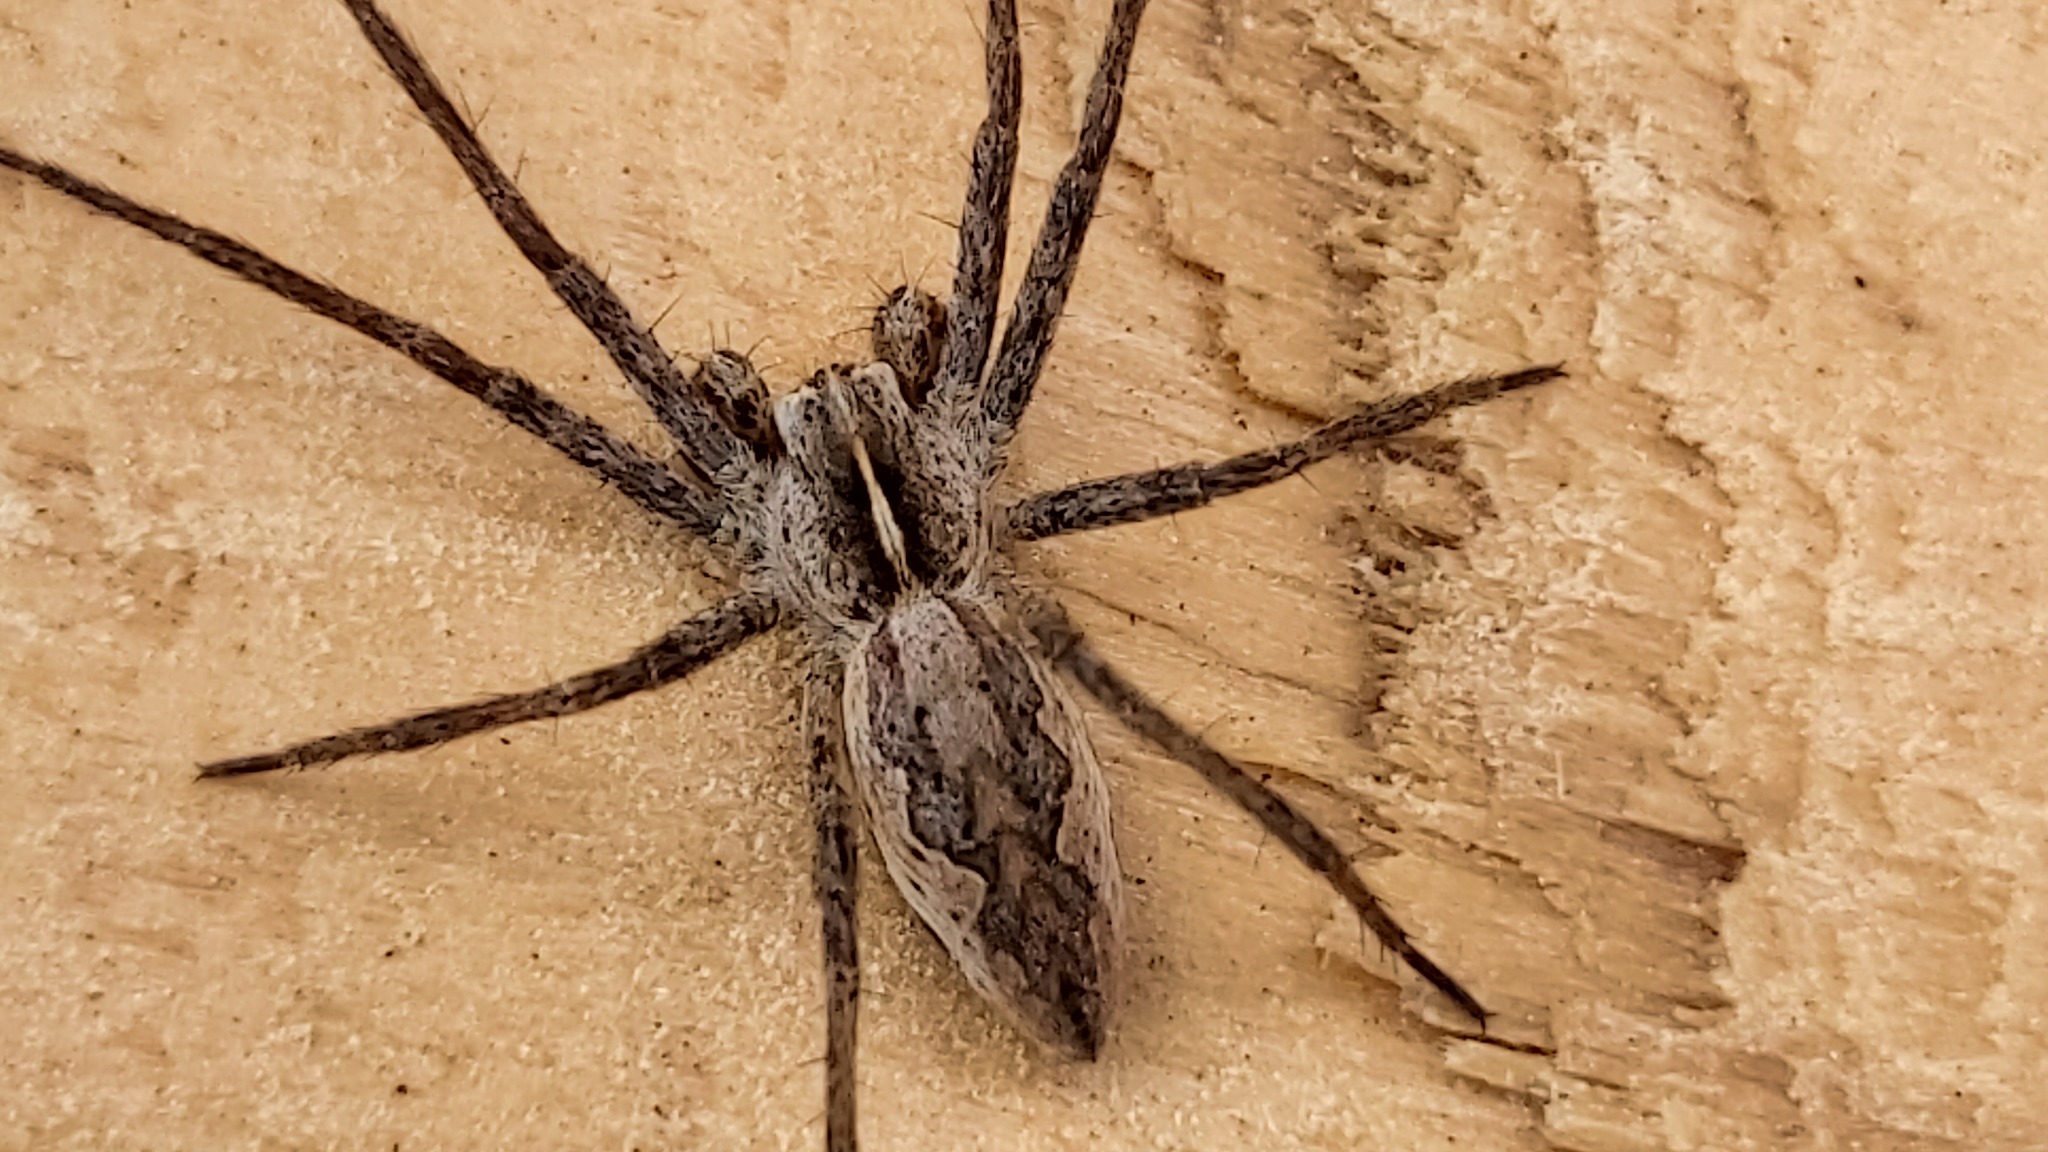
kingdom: Animalia
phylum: Arthropoda
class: Arachnida
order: Araneae
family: Pisauridae
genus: Pisaura
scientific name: Pisaura mirabilis
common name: Tent spider
